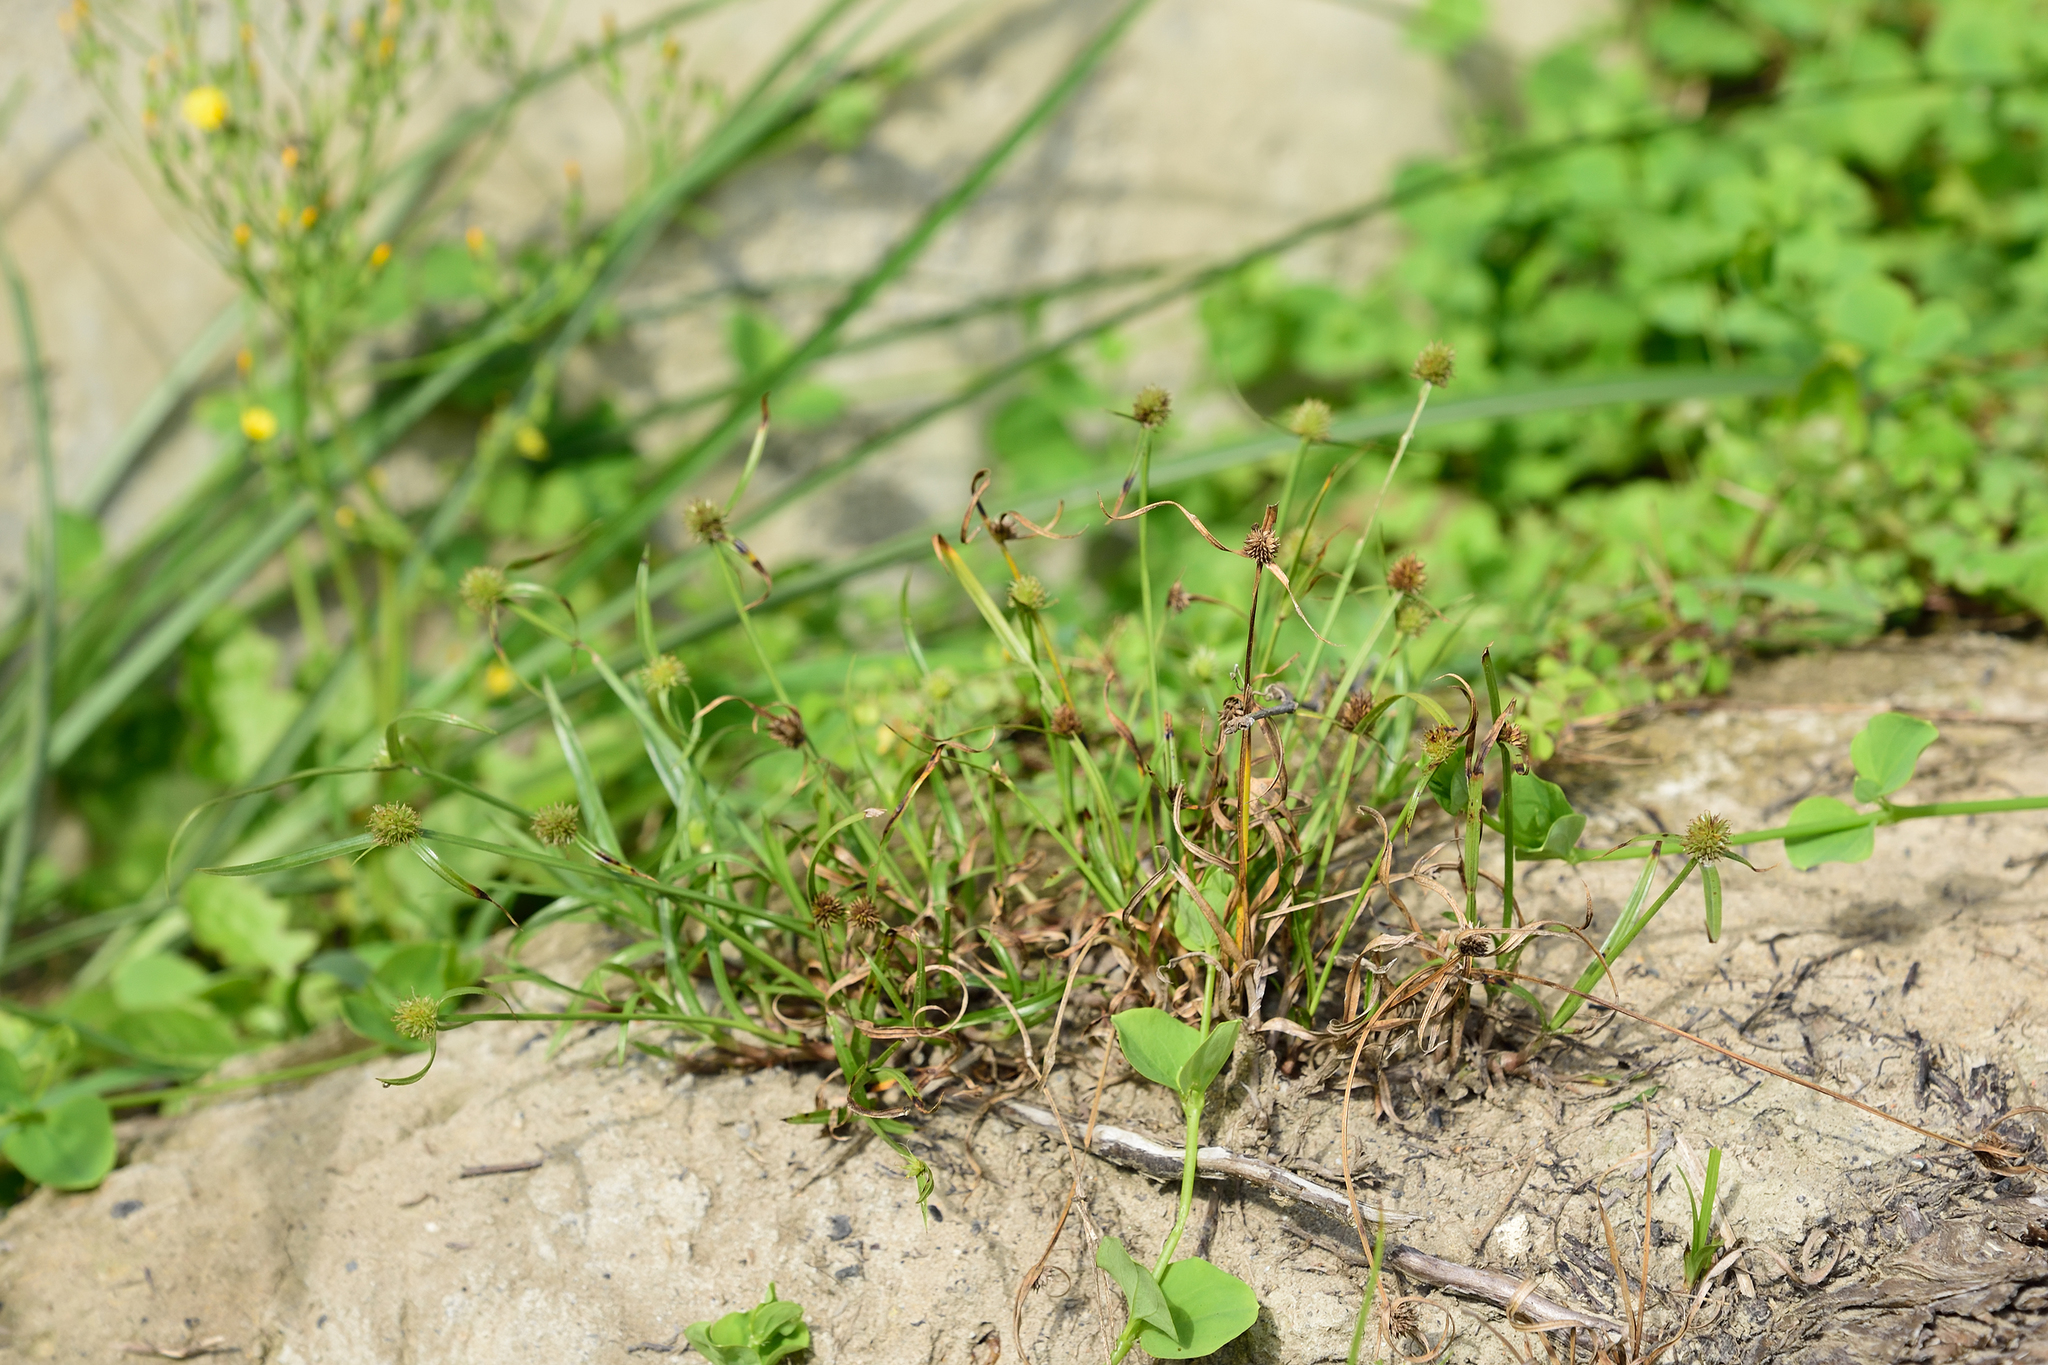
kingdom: Plantae
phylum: Tracheophyta
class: Liliopsida
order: Poales
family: Cyperaceae
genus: Cyperus
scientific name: Cyperus brevifolius
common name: Globe kyllinga
